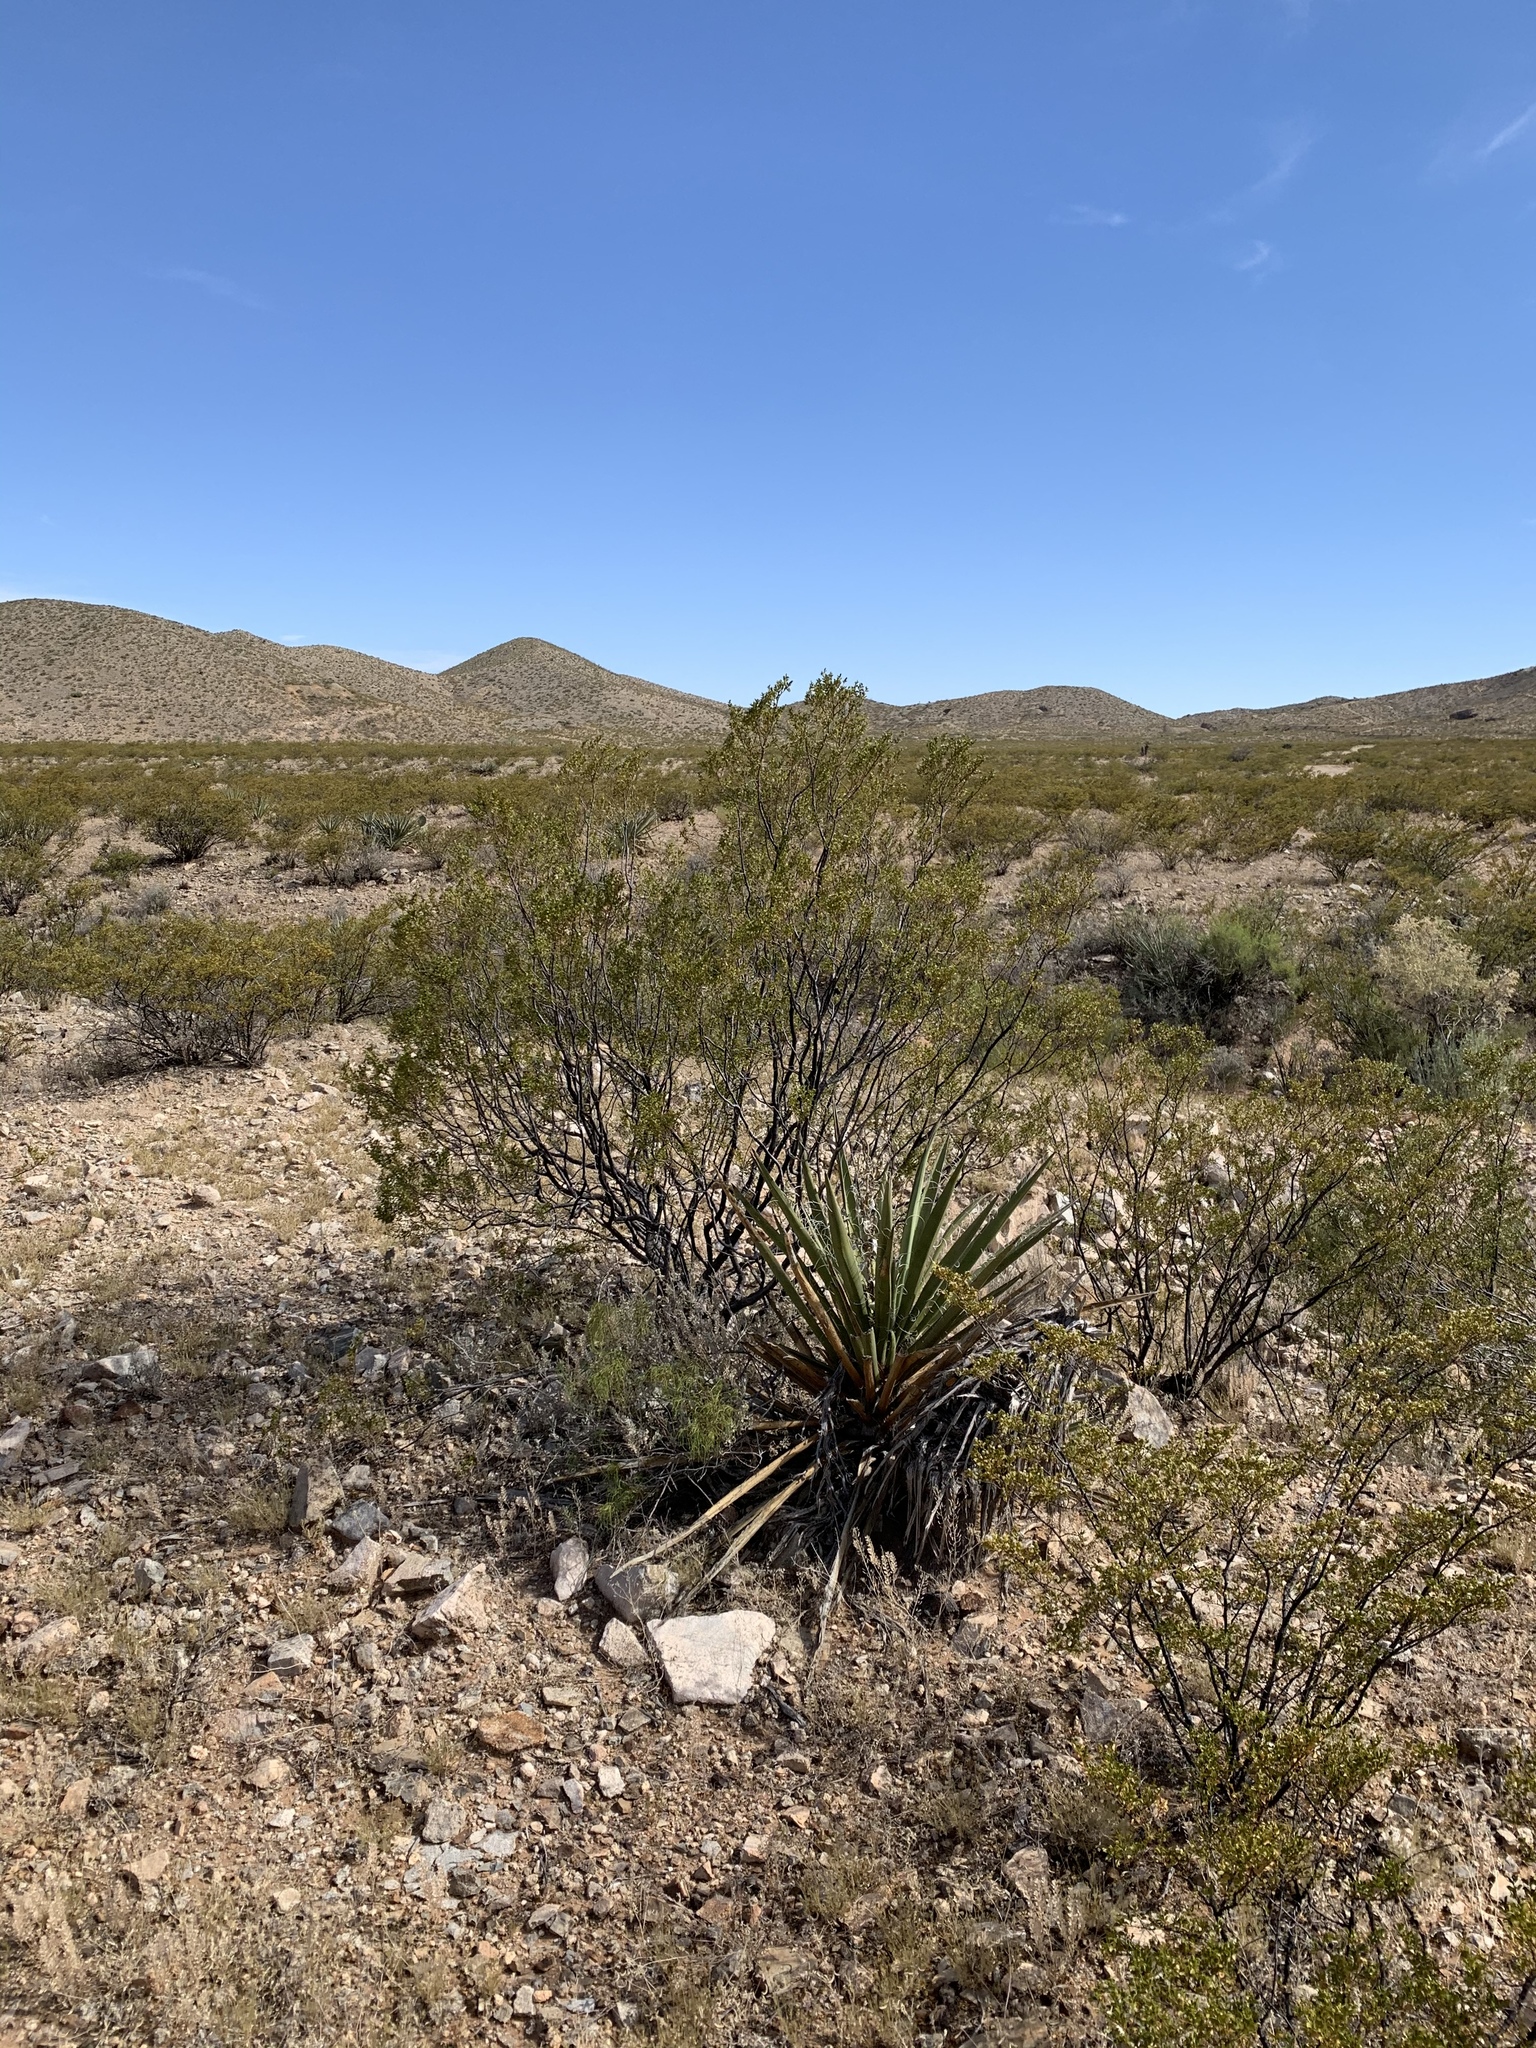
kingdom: Plantae
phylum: Tracheophyta
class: Magnoliopsida
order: Zygophyllales
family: Zygophyllaceae
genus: Larrea
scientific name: Larrea tridentata
